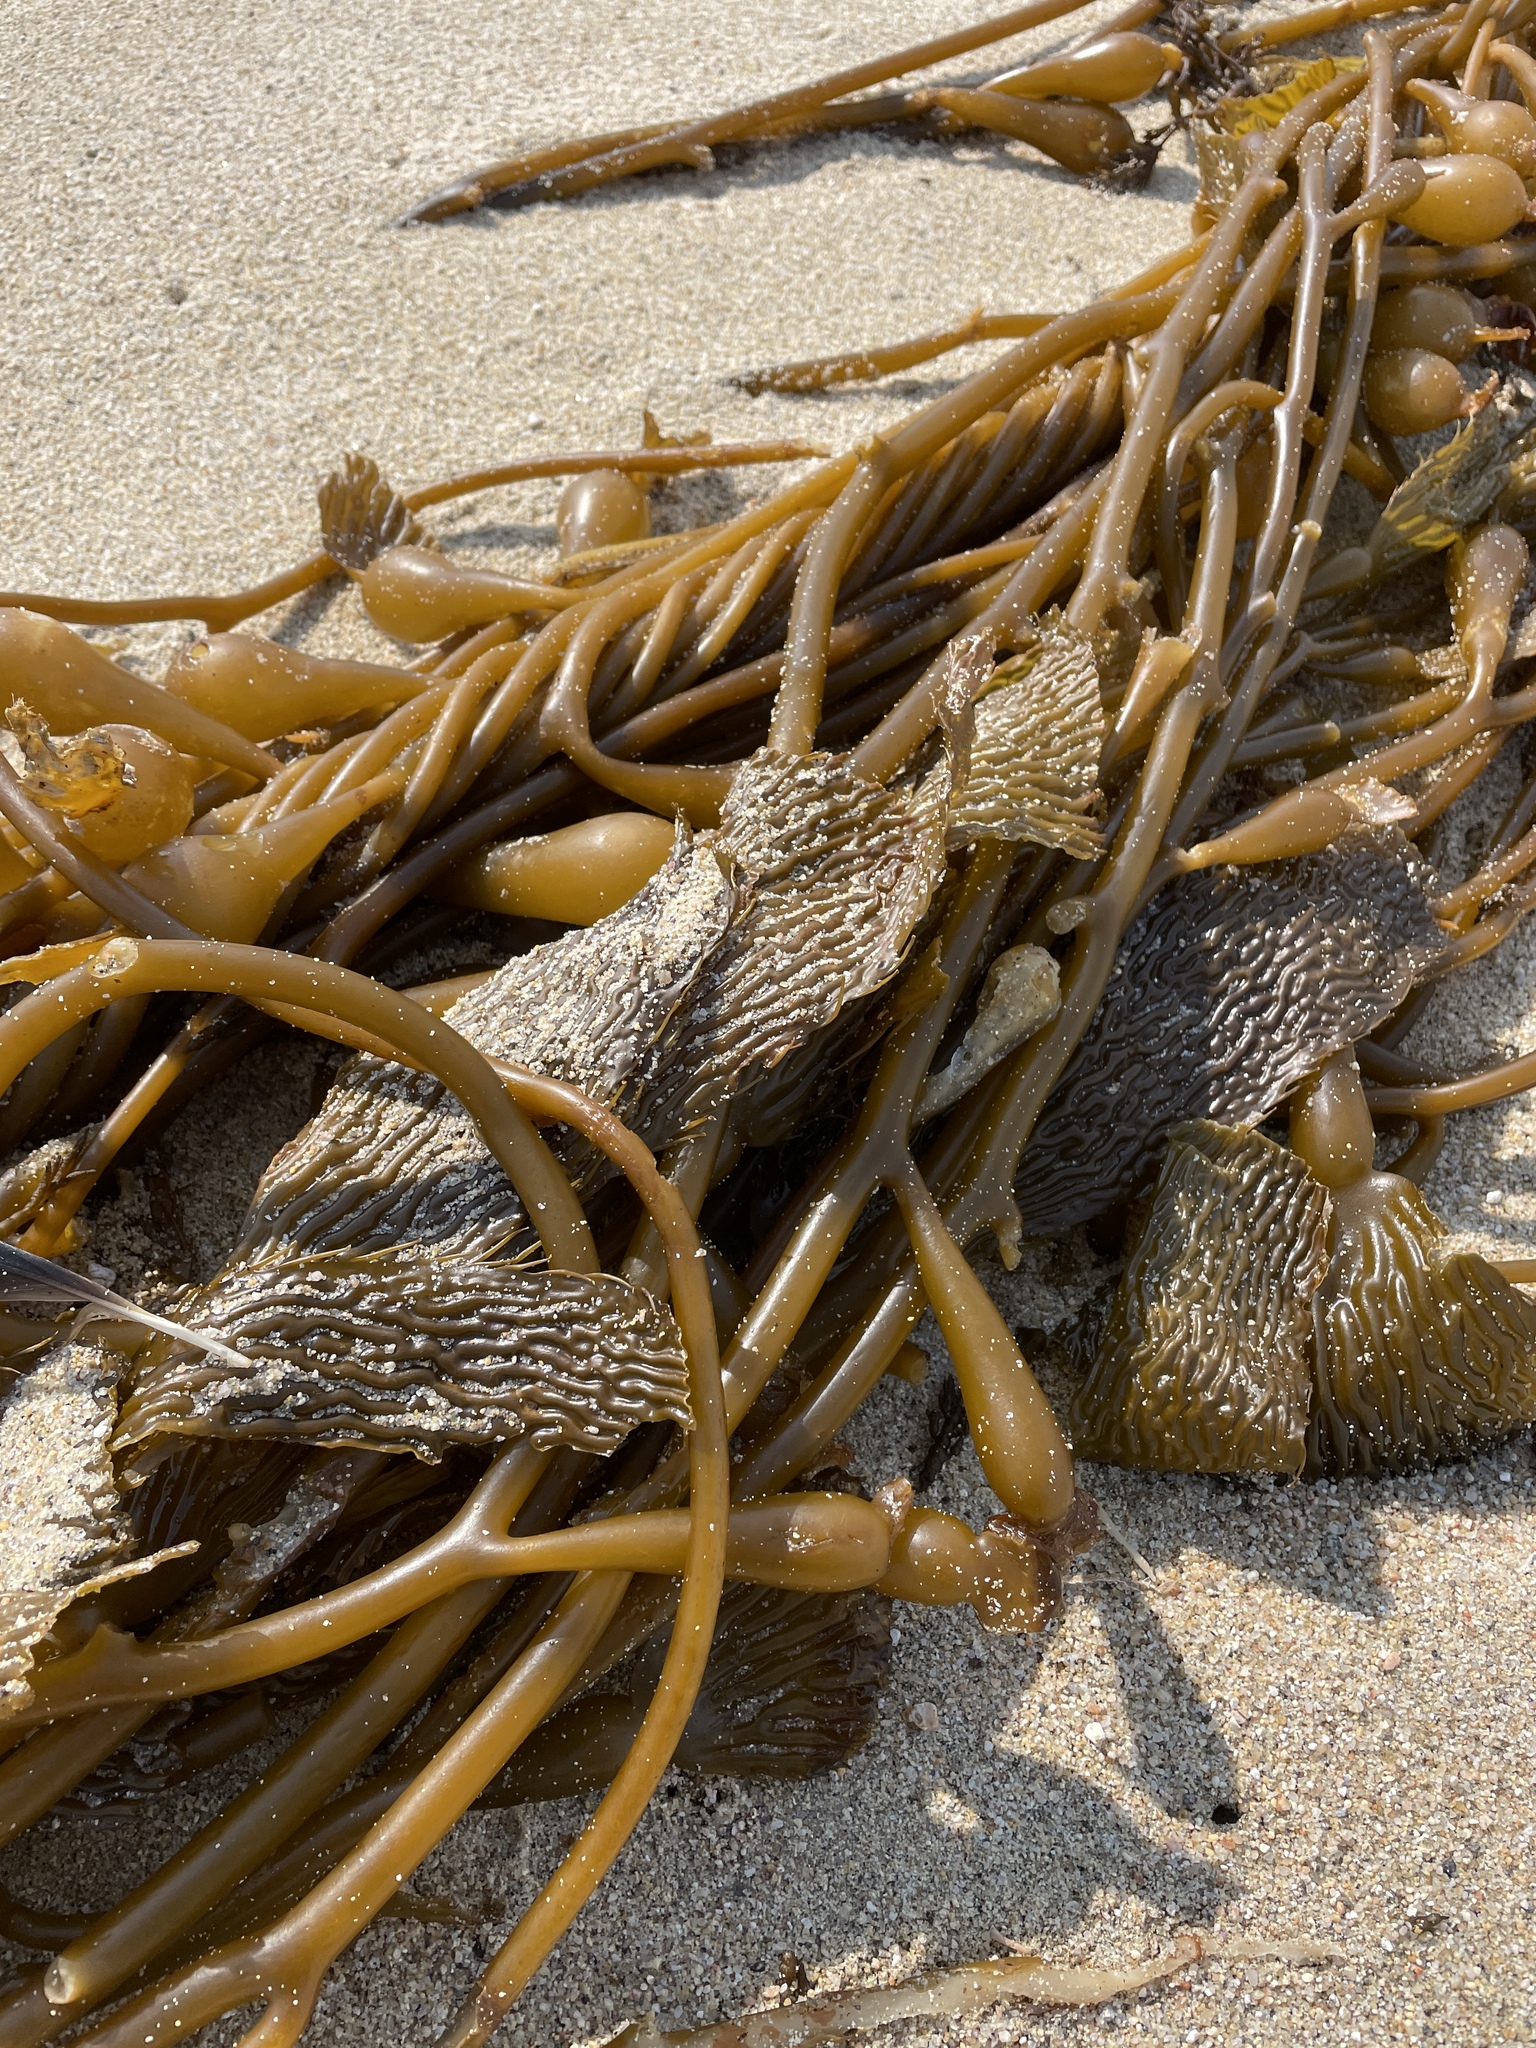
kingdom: Chromista
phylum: Ochrophyta
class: Phaeophyceae
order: Laminariales
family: Laminariaceae
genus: Macrocystis
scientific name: Macrocystis pyrifera
